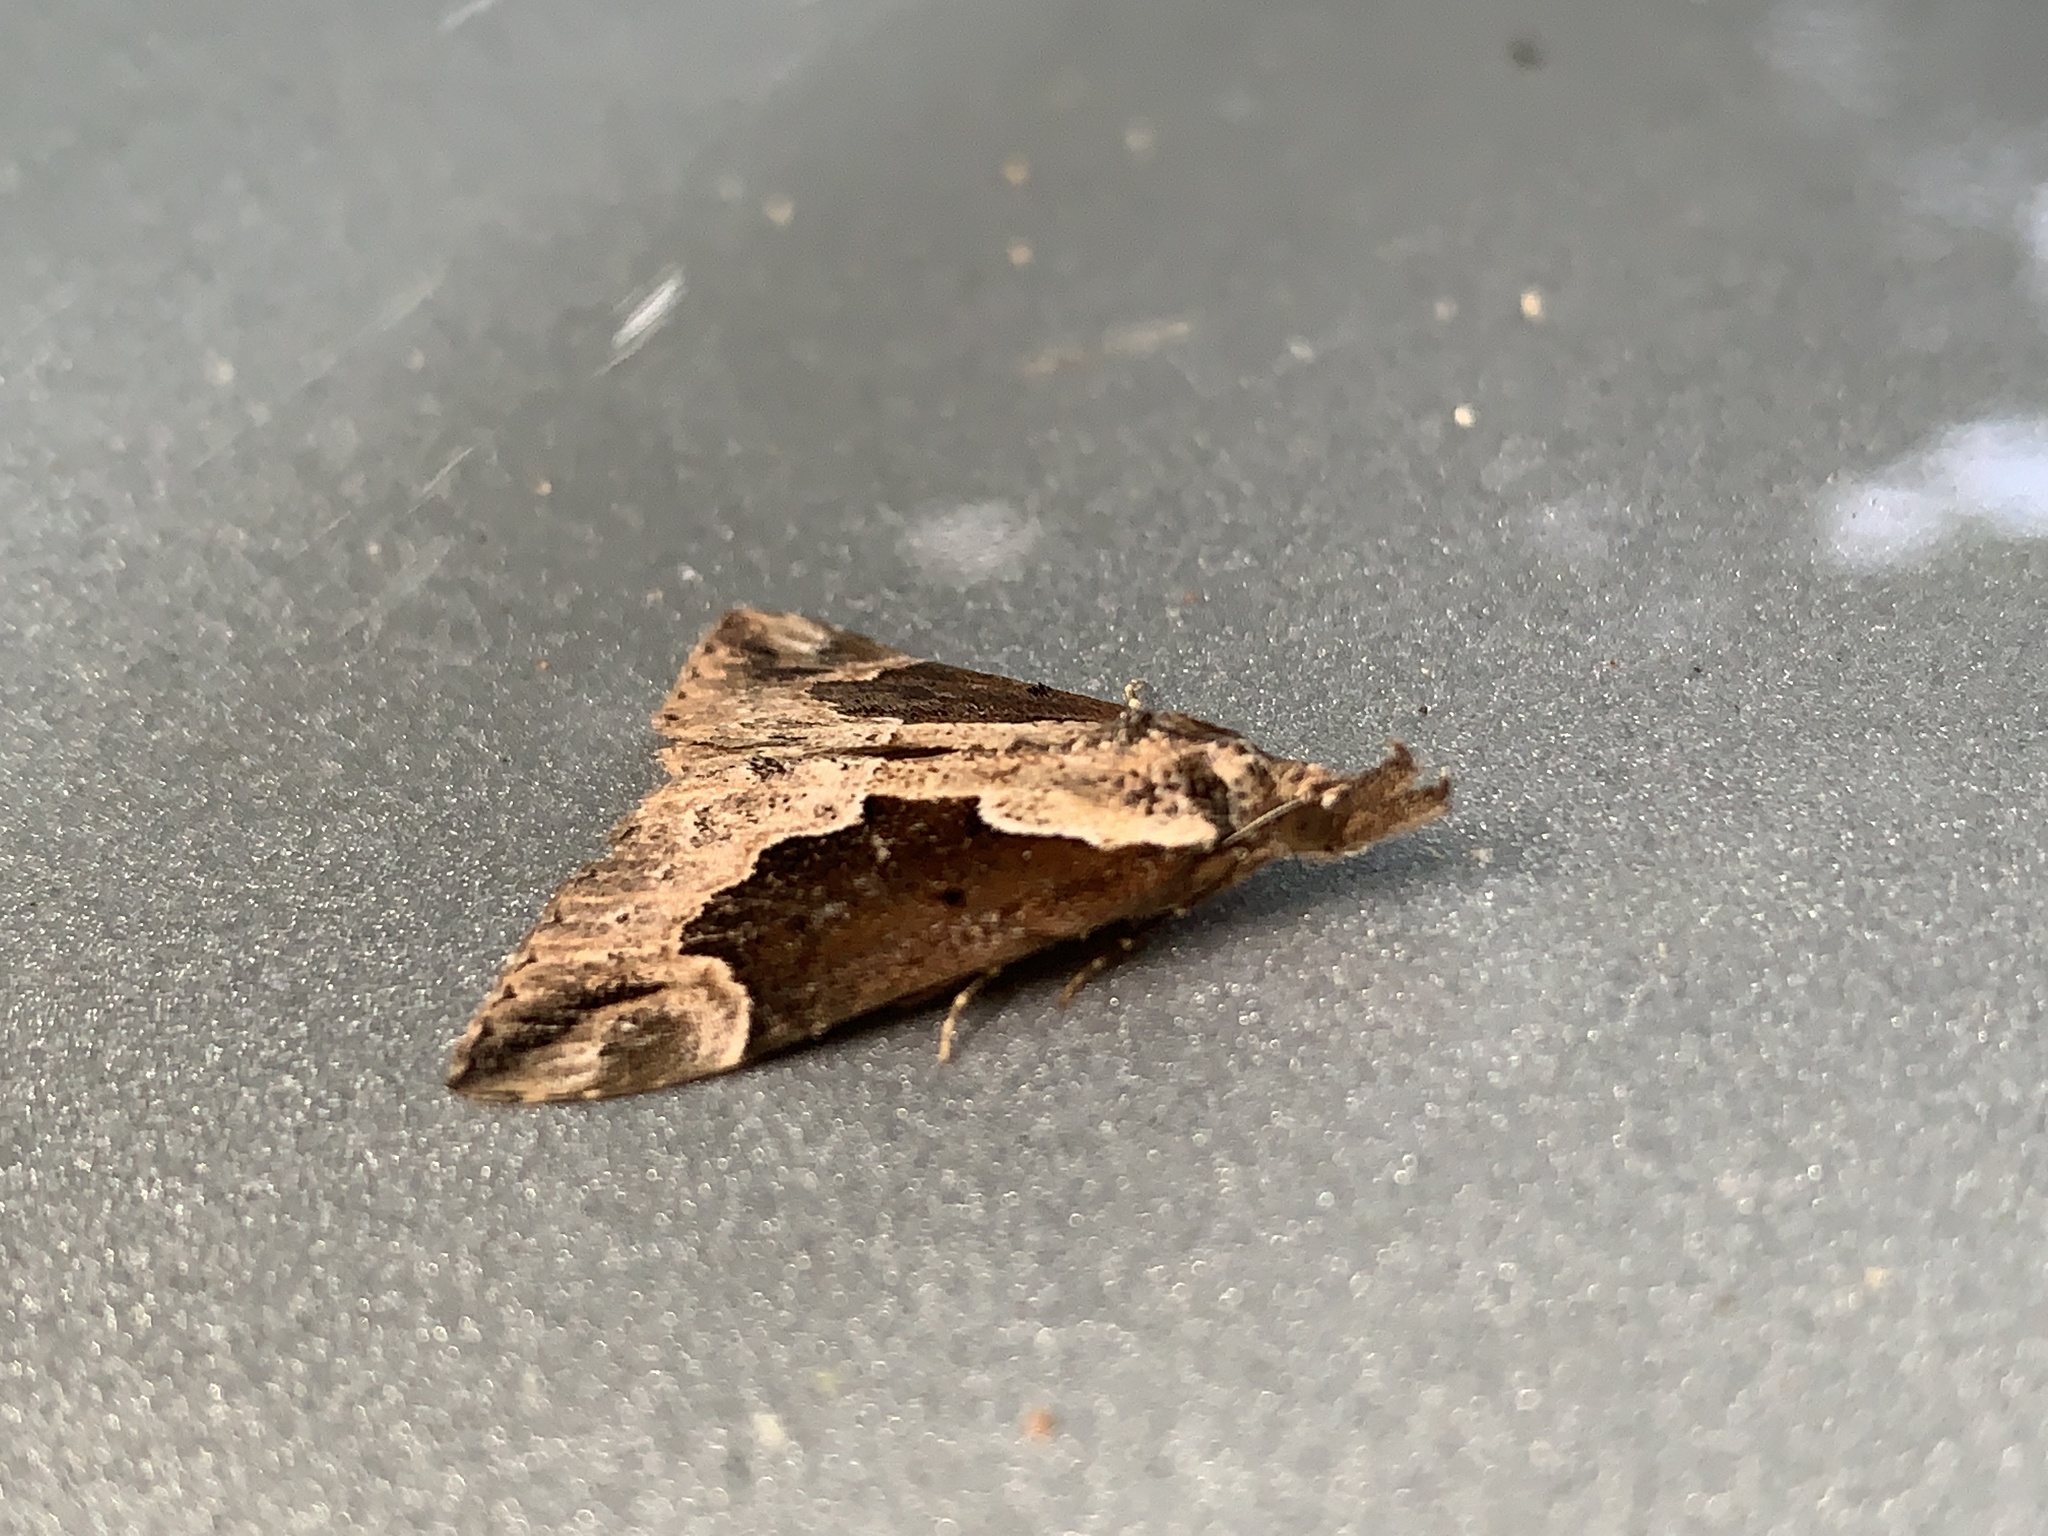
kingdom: Animalia
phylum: Arthropoda
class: Insecta
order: Lepidoptera
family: Erebidae
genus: Hypena
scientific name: Hypena baltimoralis
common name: Baltimore snout
